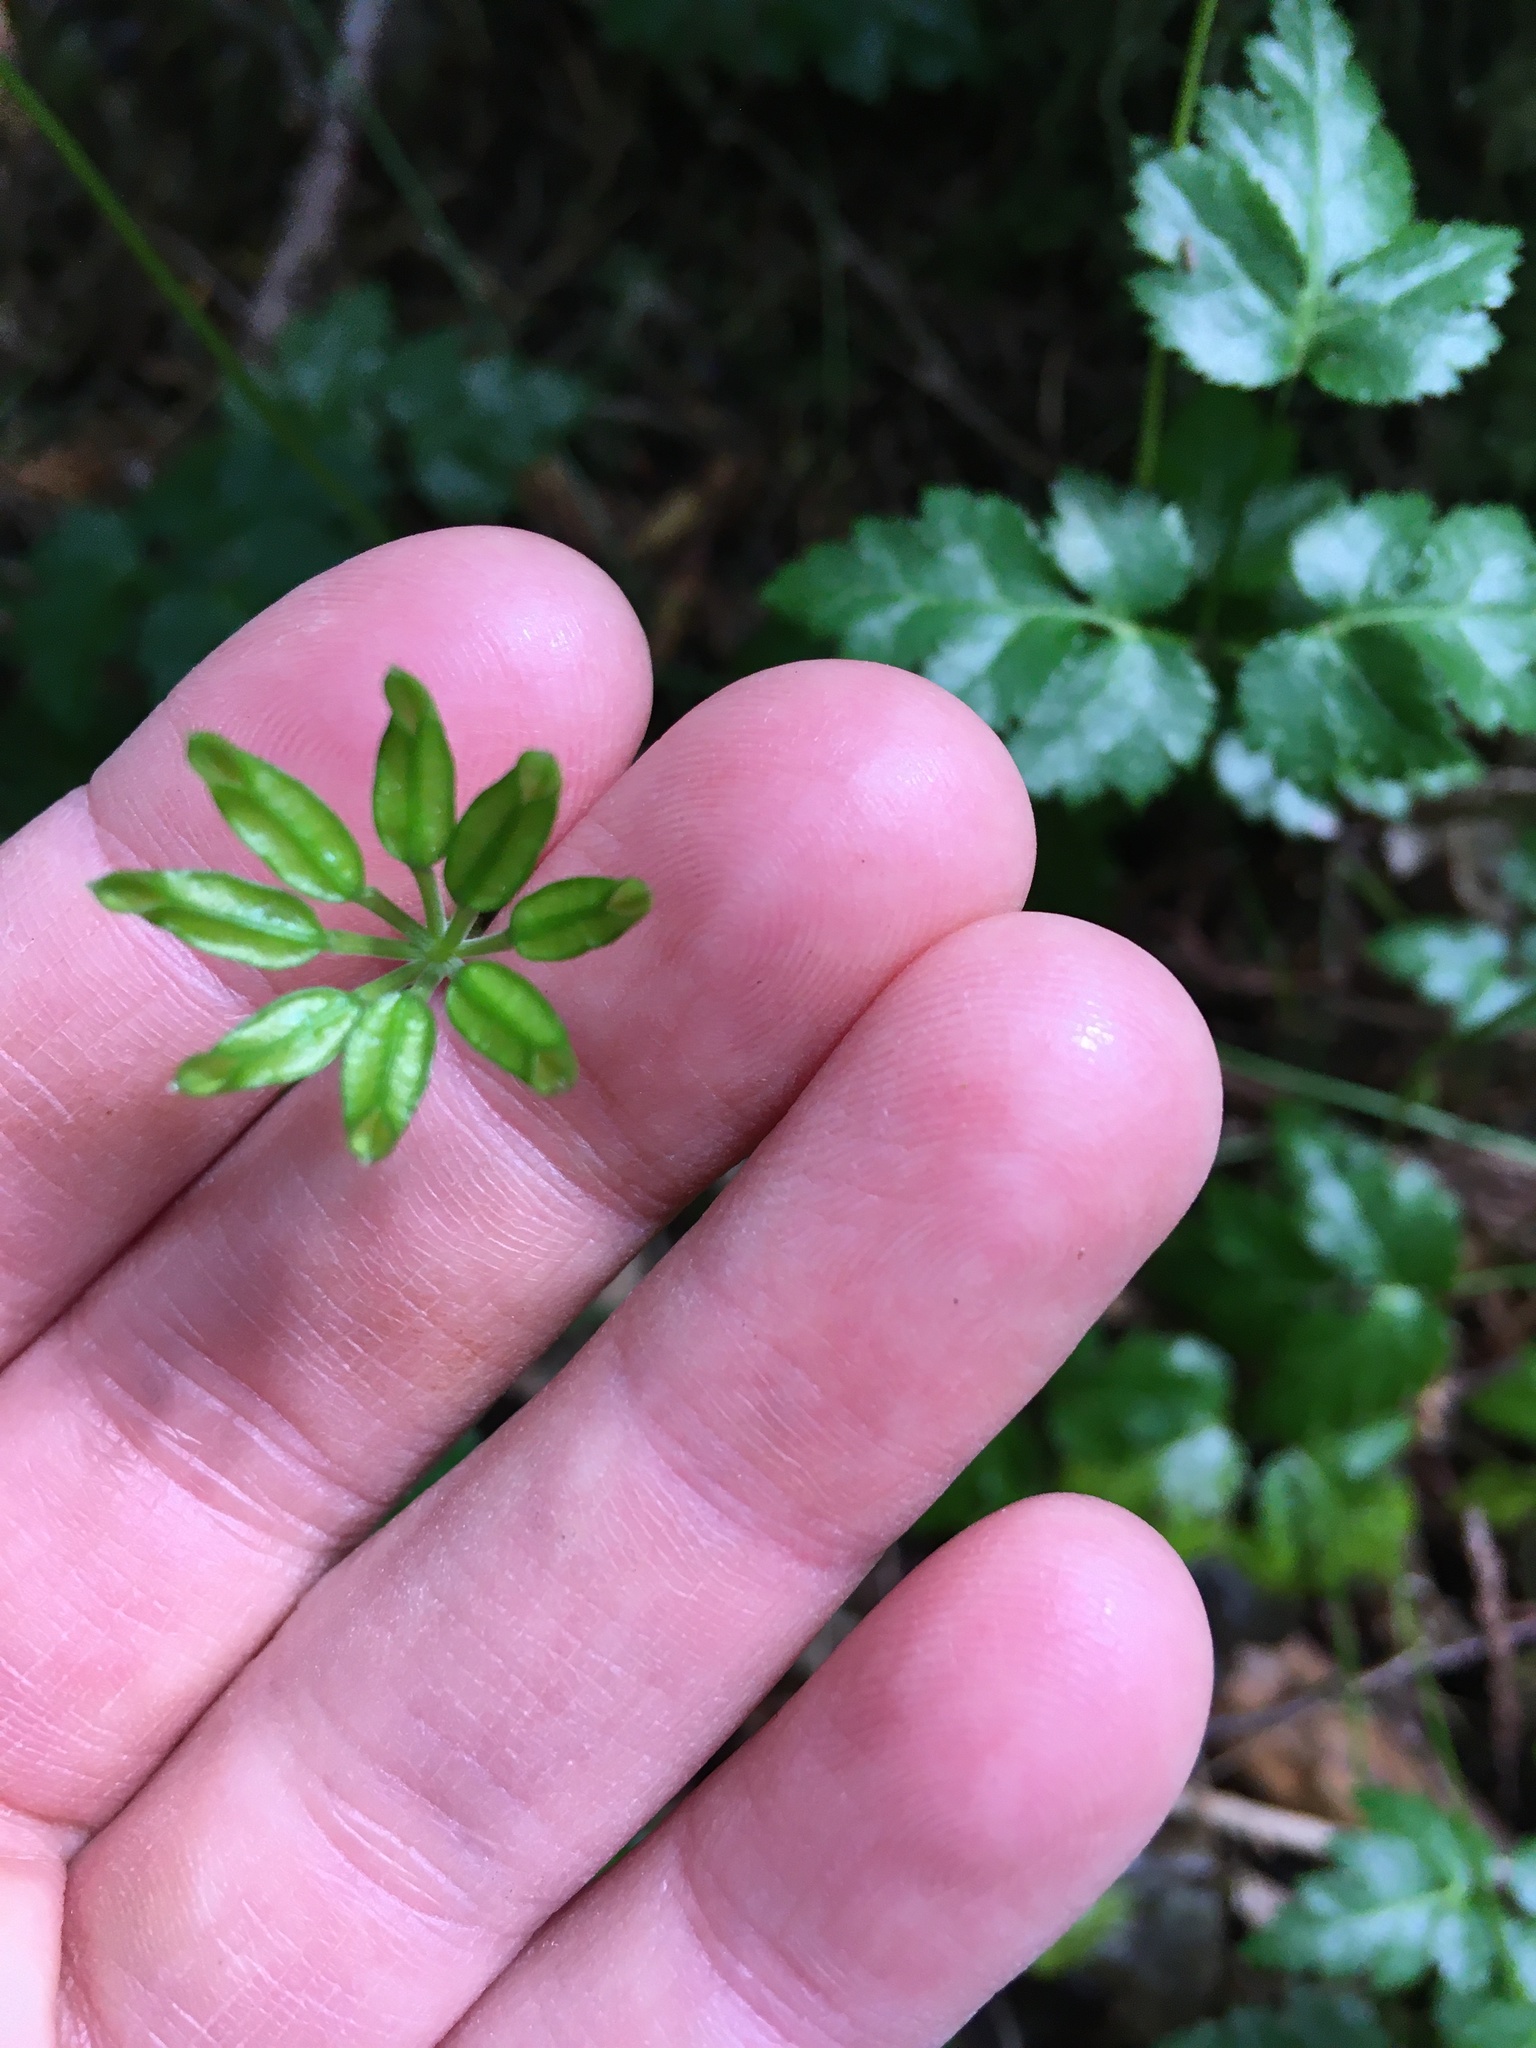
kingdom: Plantae
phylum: Tracheophyta
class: Magnoliopsida
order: Ranunculales
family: Ranunculaceae
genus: Coptis
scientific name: Coptis laciniata
